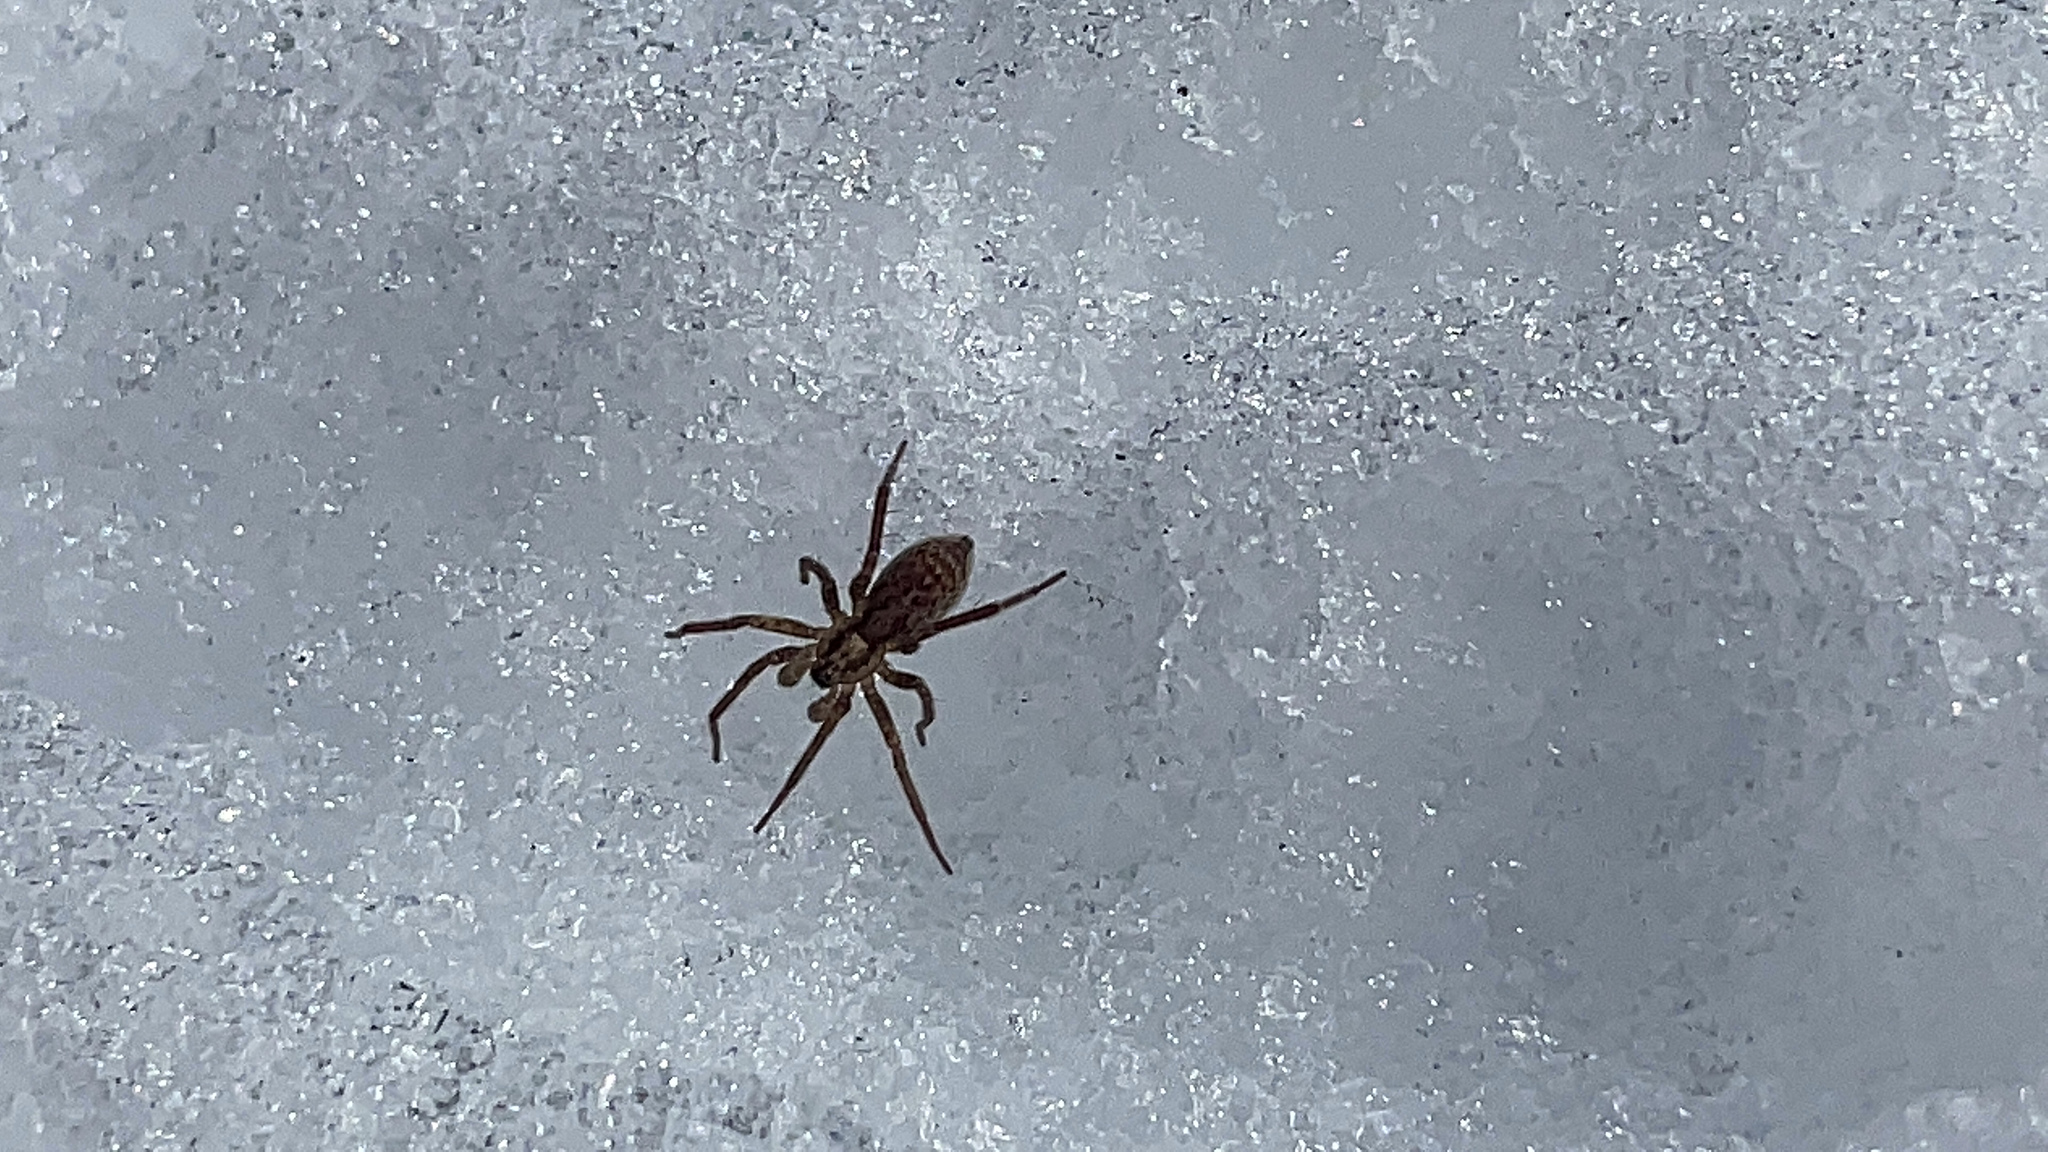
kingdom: Animalia
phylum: Arthropoda
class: Arachnida
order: Araneae
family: Lycosidae
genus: Alopecosa
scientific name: Alopecosa kochi
